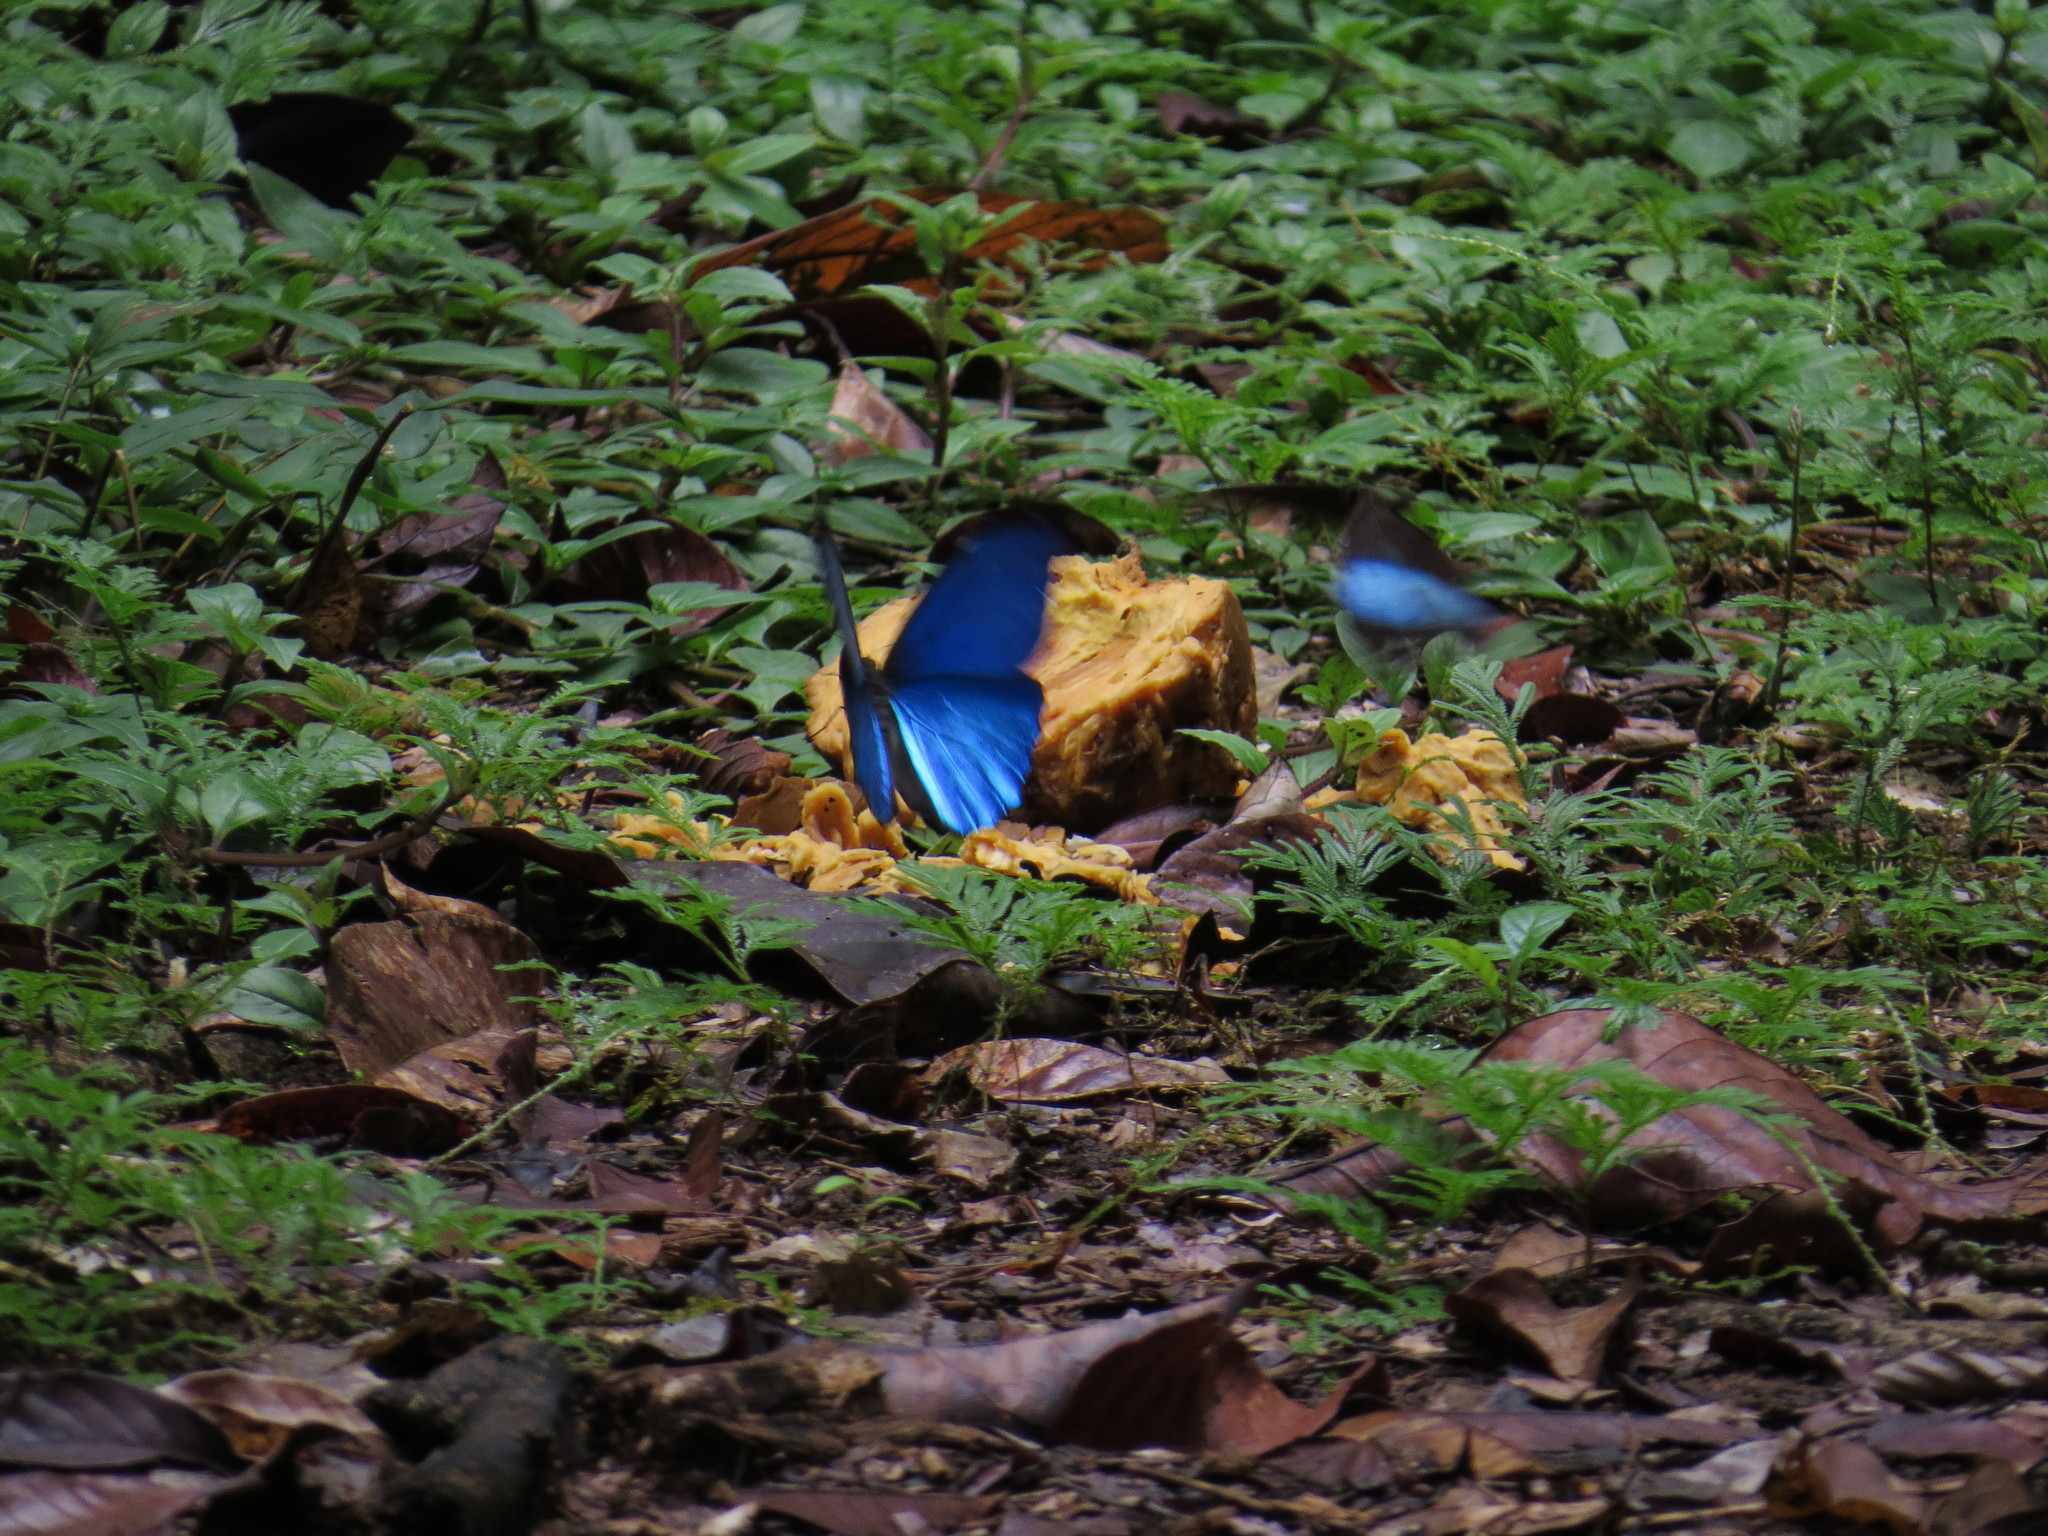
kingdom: Animalia
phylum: Arthropoda
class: Insecta
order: Lepidoptera
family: Nymphalidae
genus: Morpho
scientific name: Morpho menelaus
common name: Menelaus morpho
